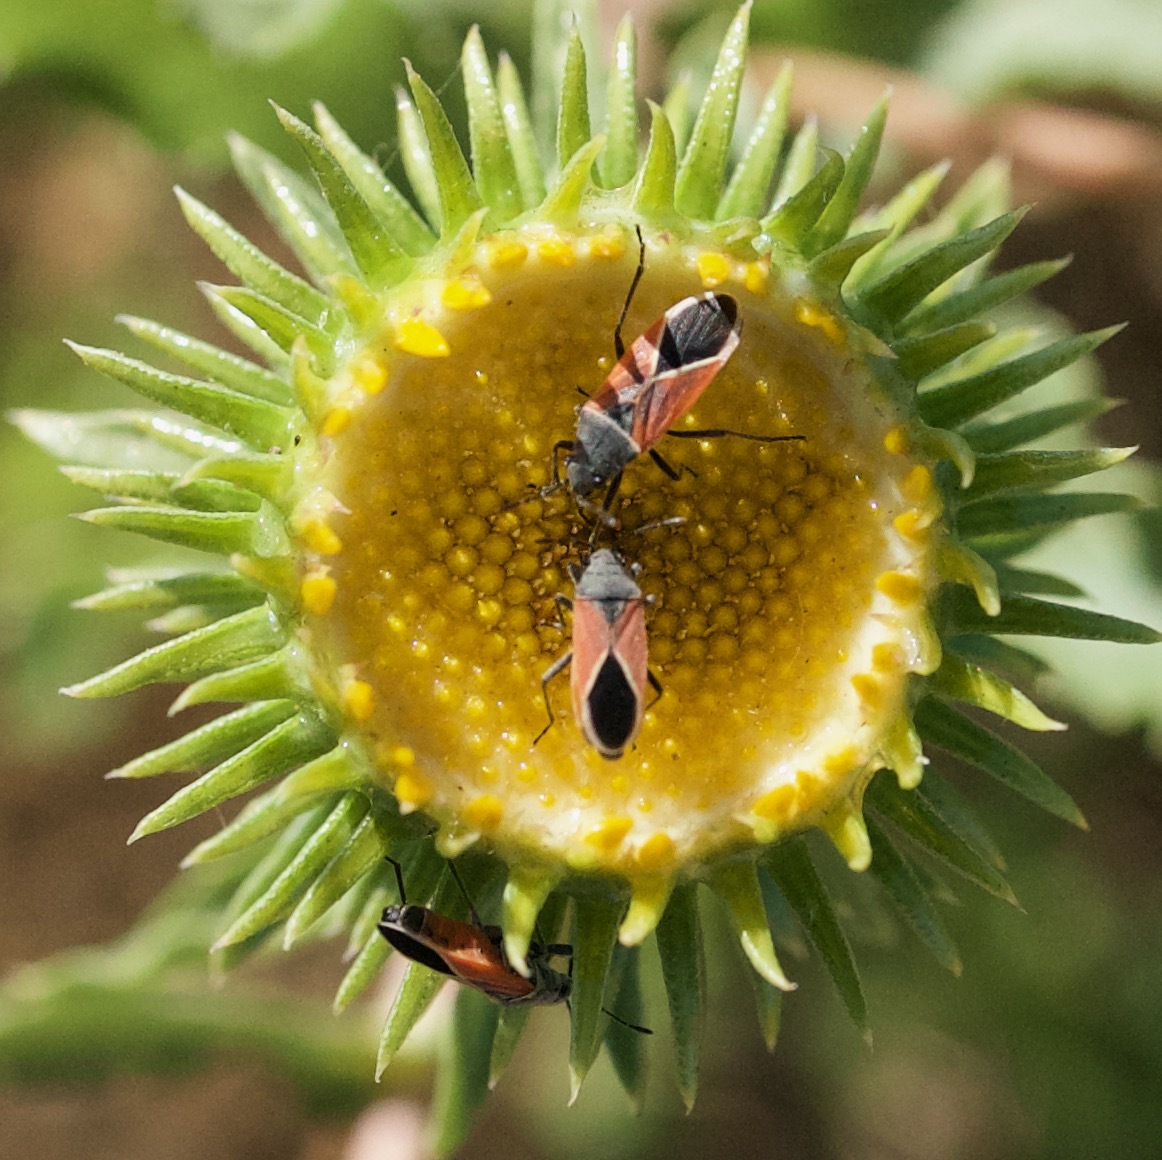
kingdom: Animalia
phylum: Arthropoda
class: Insecta
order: Hemiptera
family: Lygaeidae
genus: Melanopleurus
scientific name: Melanopleurus pyrrhopterus
